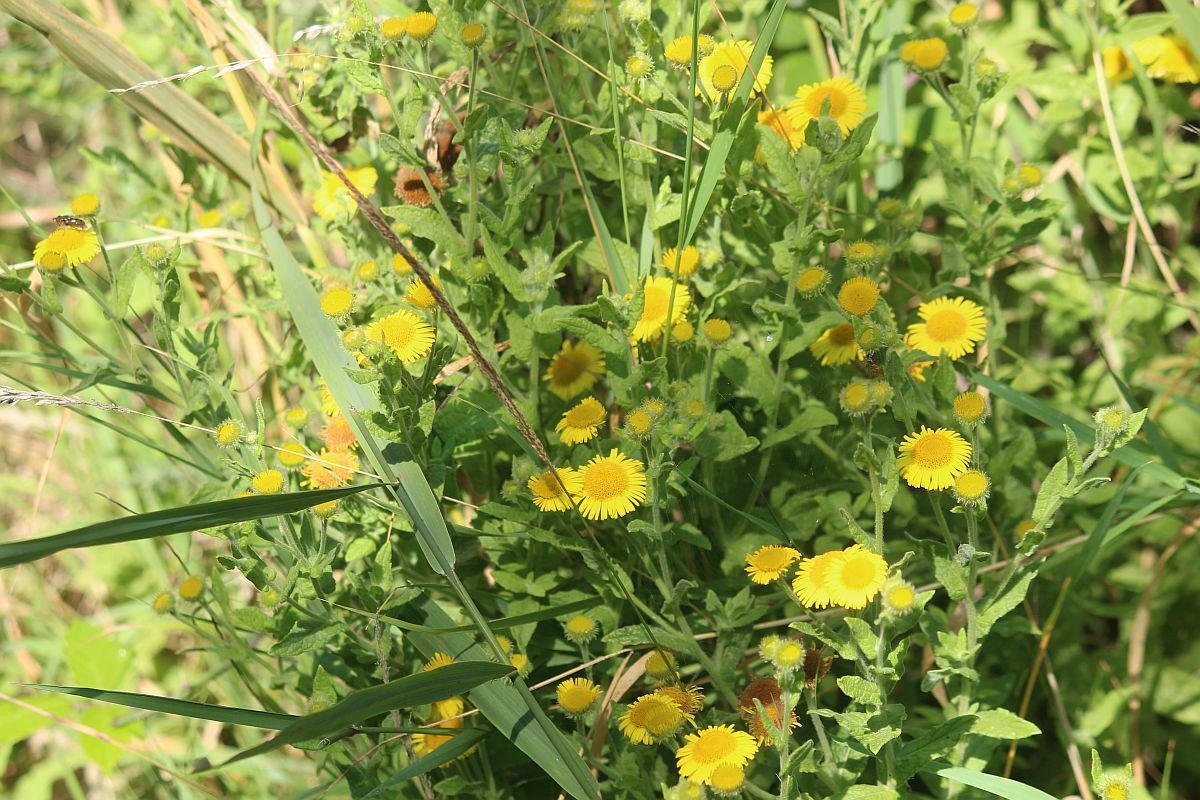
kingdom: Plantae
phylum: Tracheophyta
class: Magnoliopsida
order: Asterales
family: Asteraceae
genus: Pulicaria
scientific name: Pulicaria dysenterica
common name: Common fleabane
